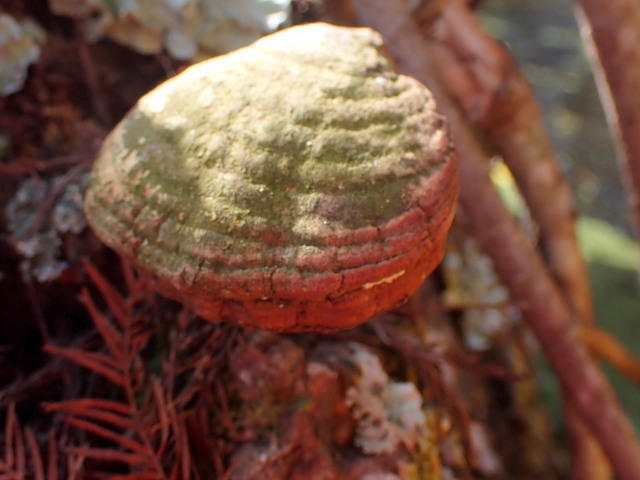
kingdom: Fungi
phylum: Basidiomycota
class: Agaricomycetes
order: Polyporales
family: Polyporaceae
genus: Ganoderma
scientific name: Ganoderma curtisii
